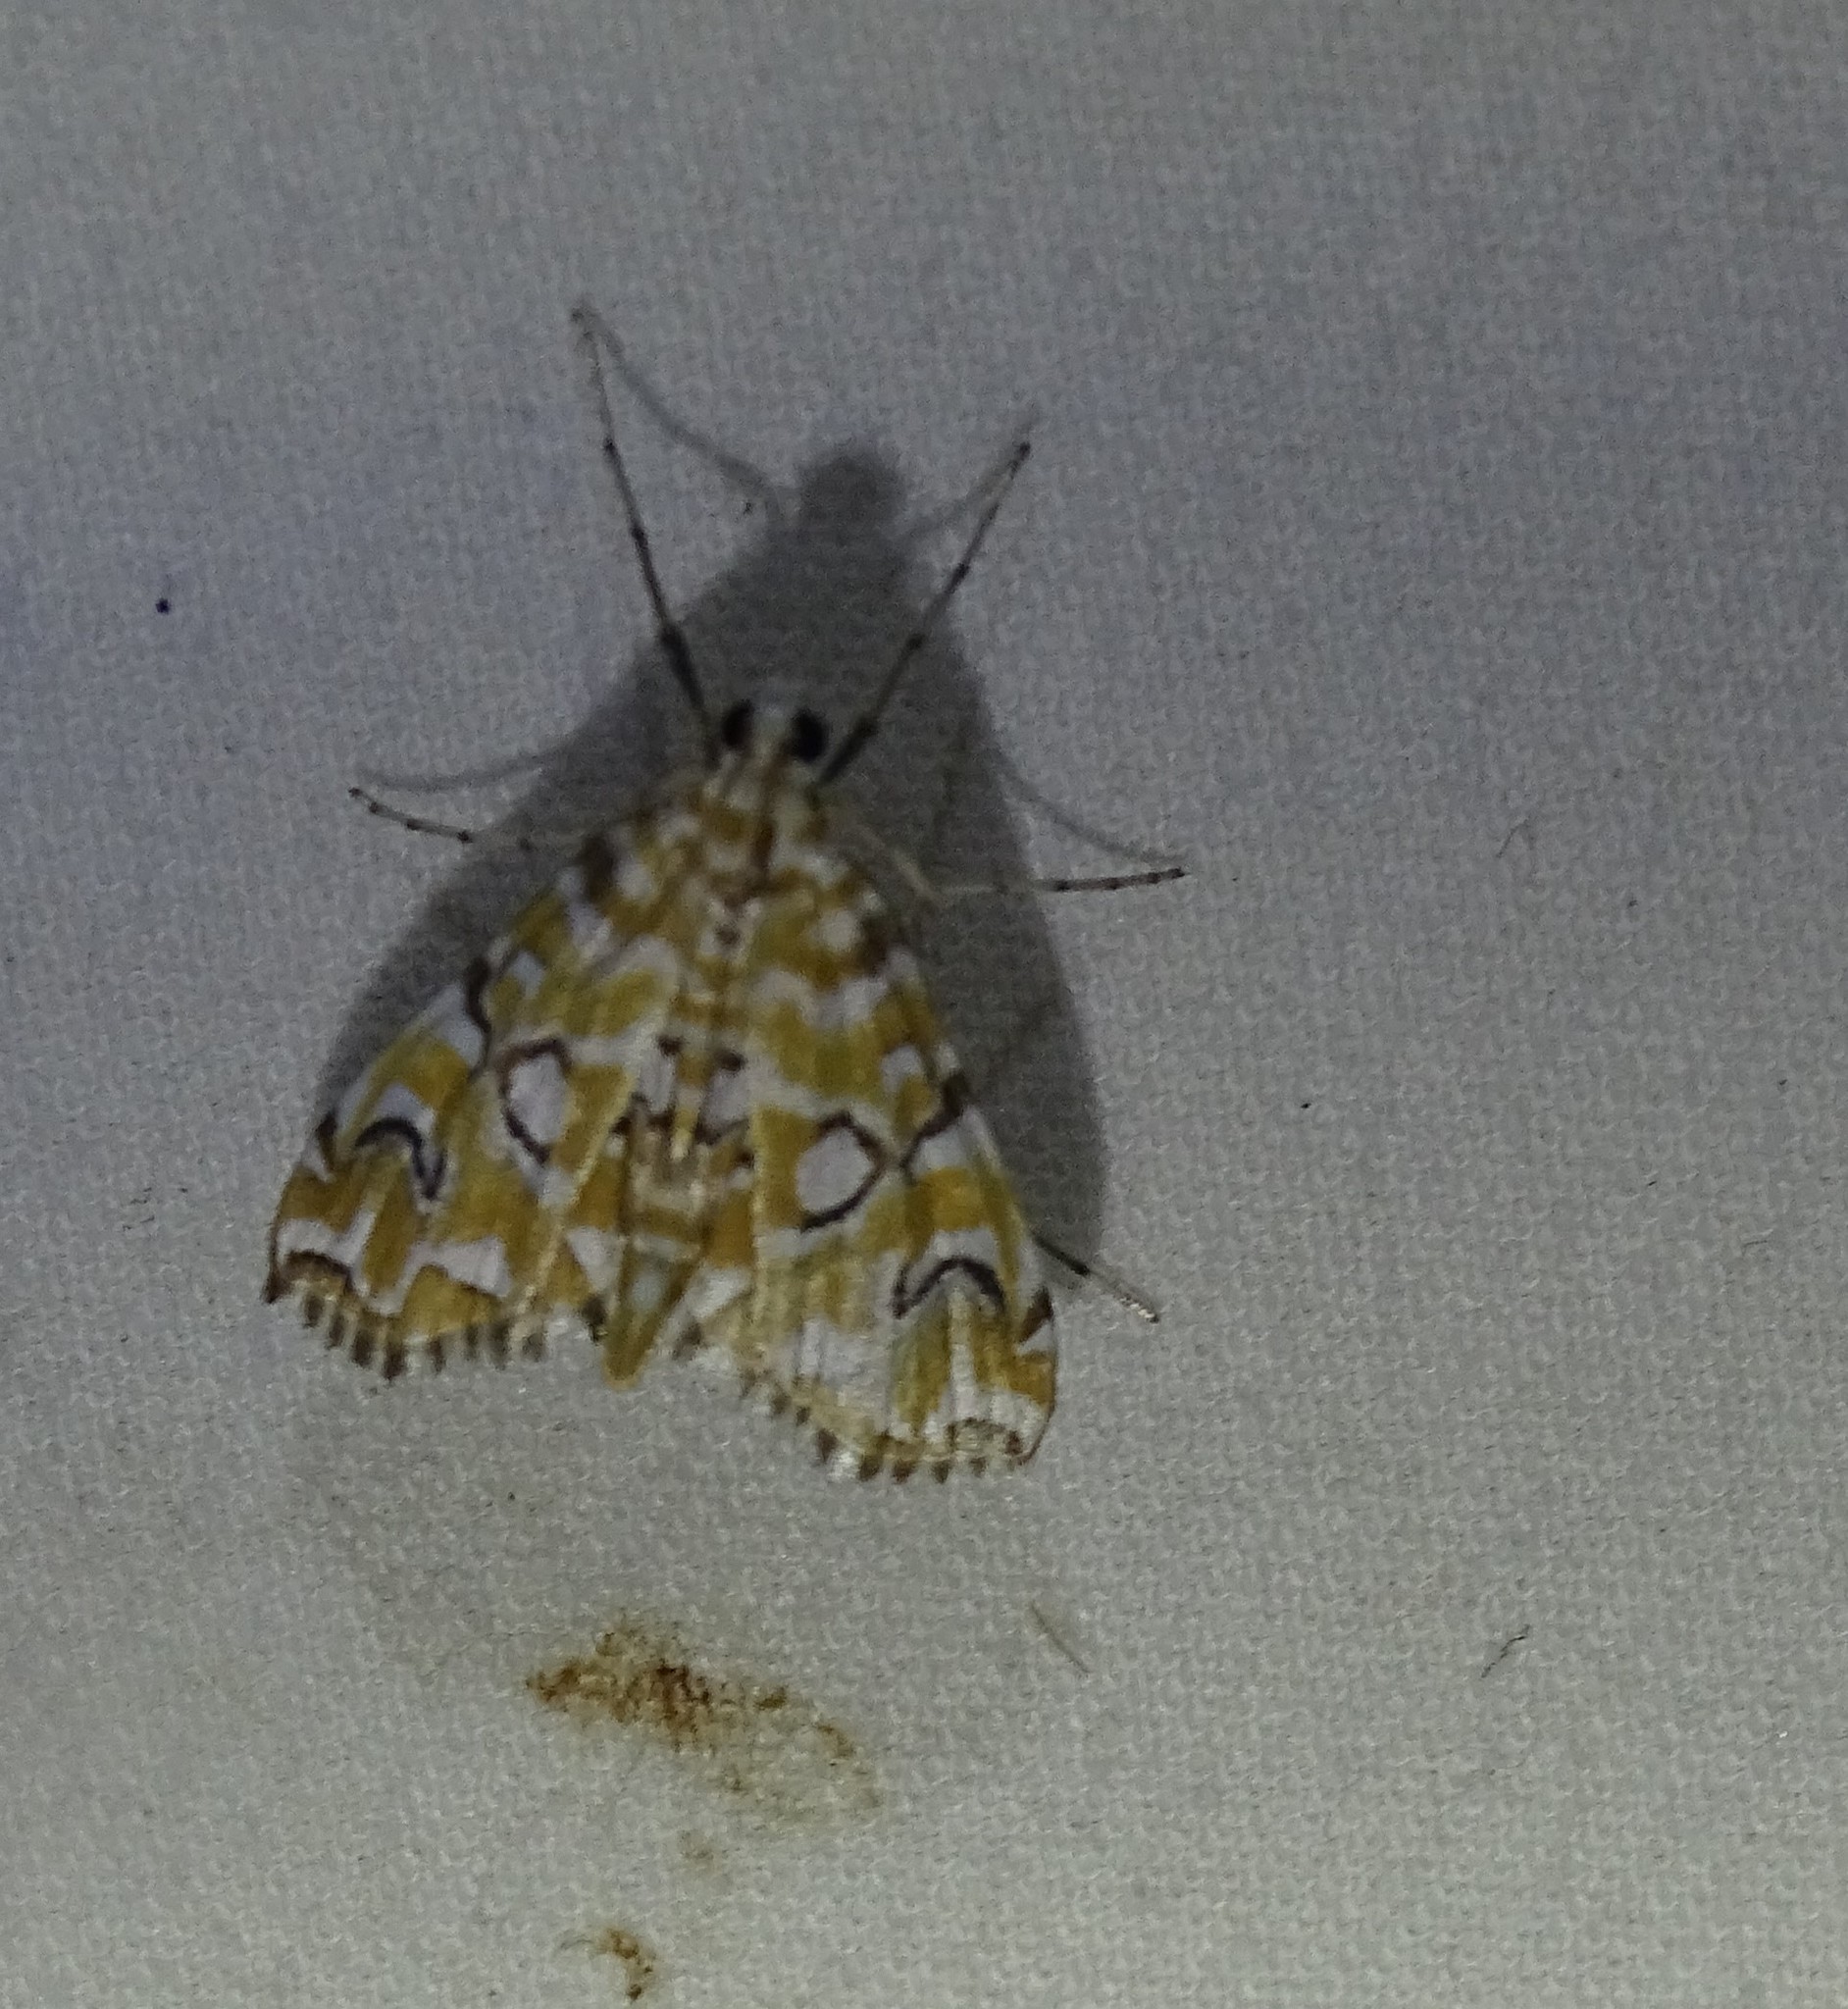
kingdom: Animalia
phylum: Arthropoda
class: Insecta
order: Lepidoptera
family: Crambidae
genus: Elophila
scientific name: Elophila icciusalis
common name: Pondside pyralid moth
